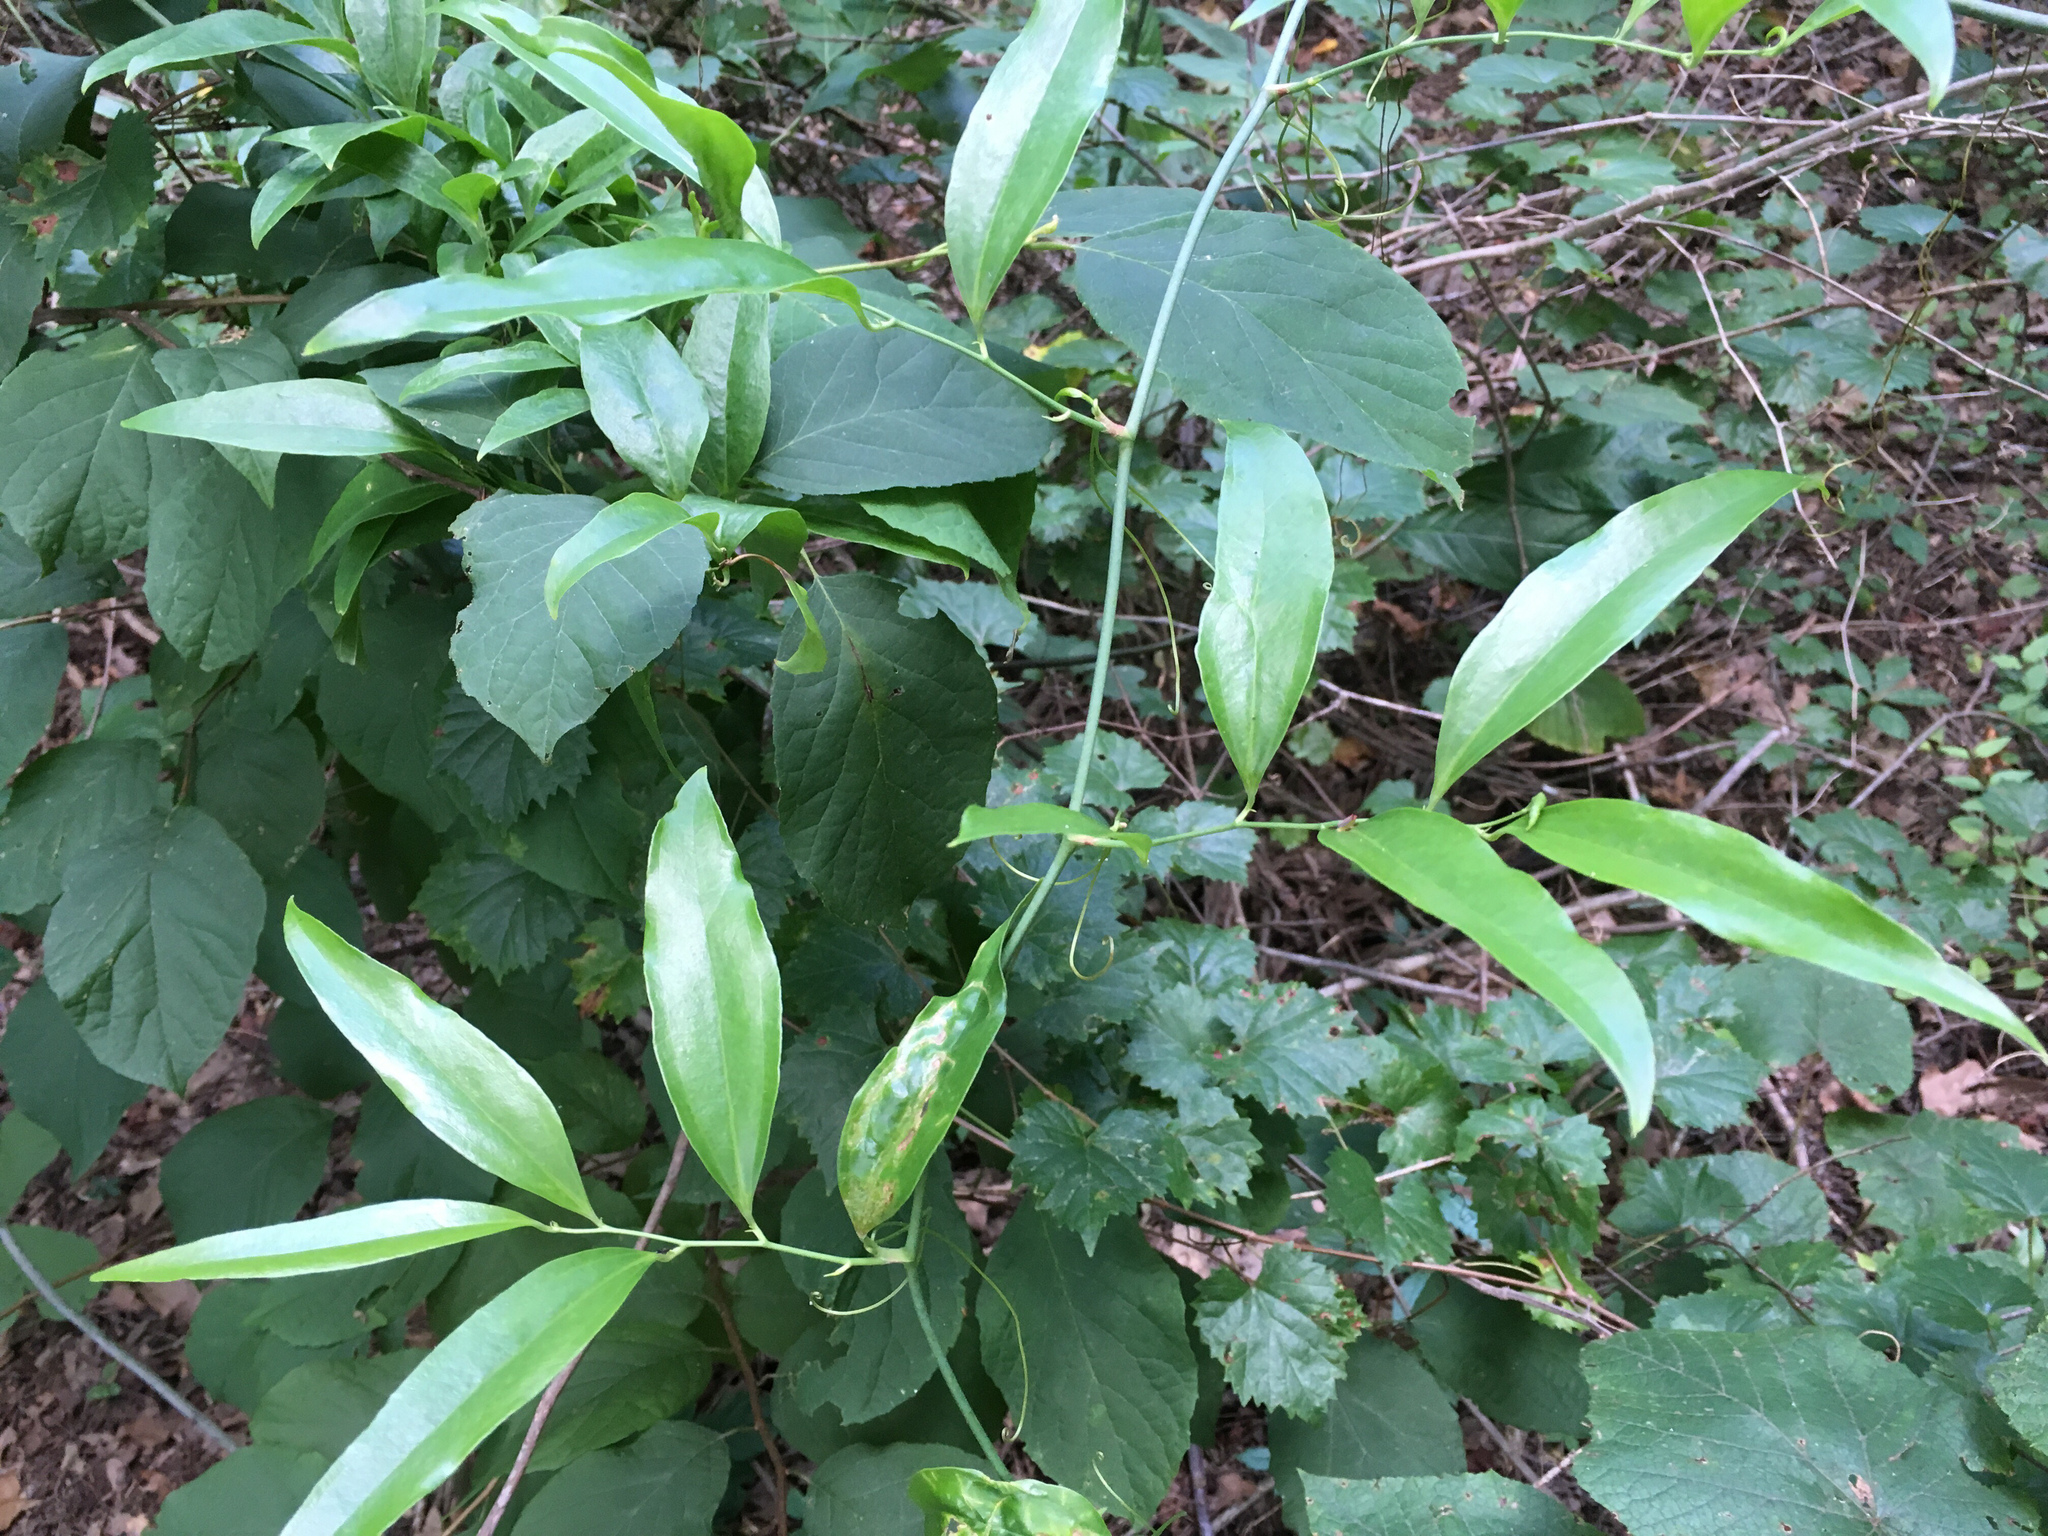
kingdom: Plantae
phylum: Tracheophyta
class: Liliopsida
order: Liliales
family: Smilacaceae
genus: Smilax
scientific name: Smilax maritima
